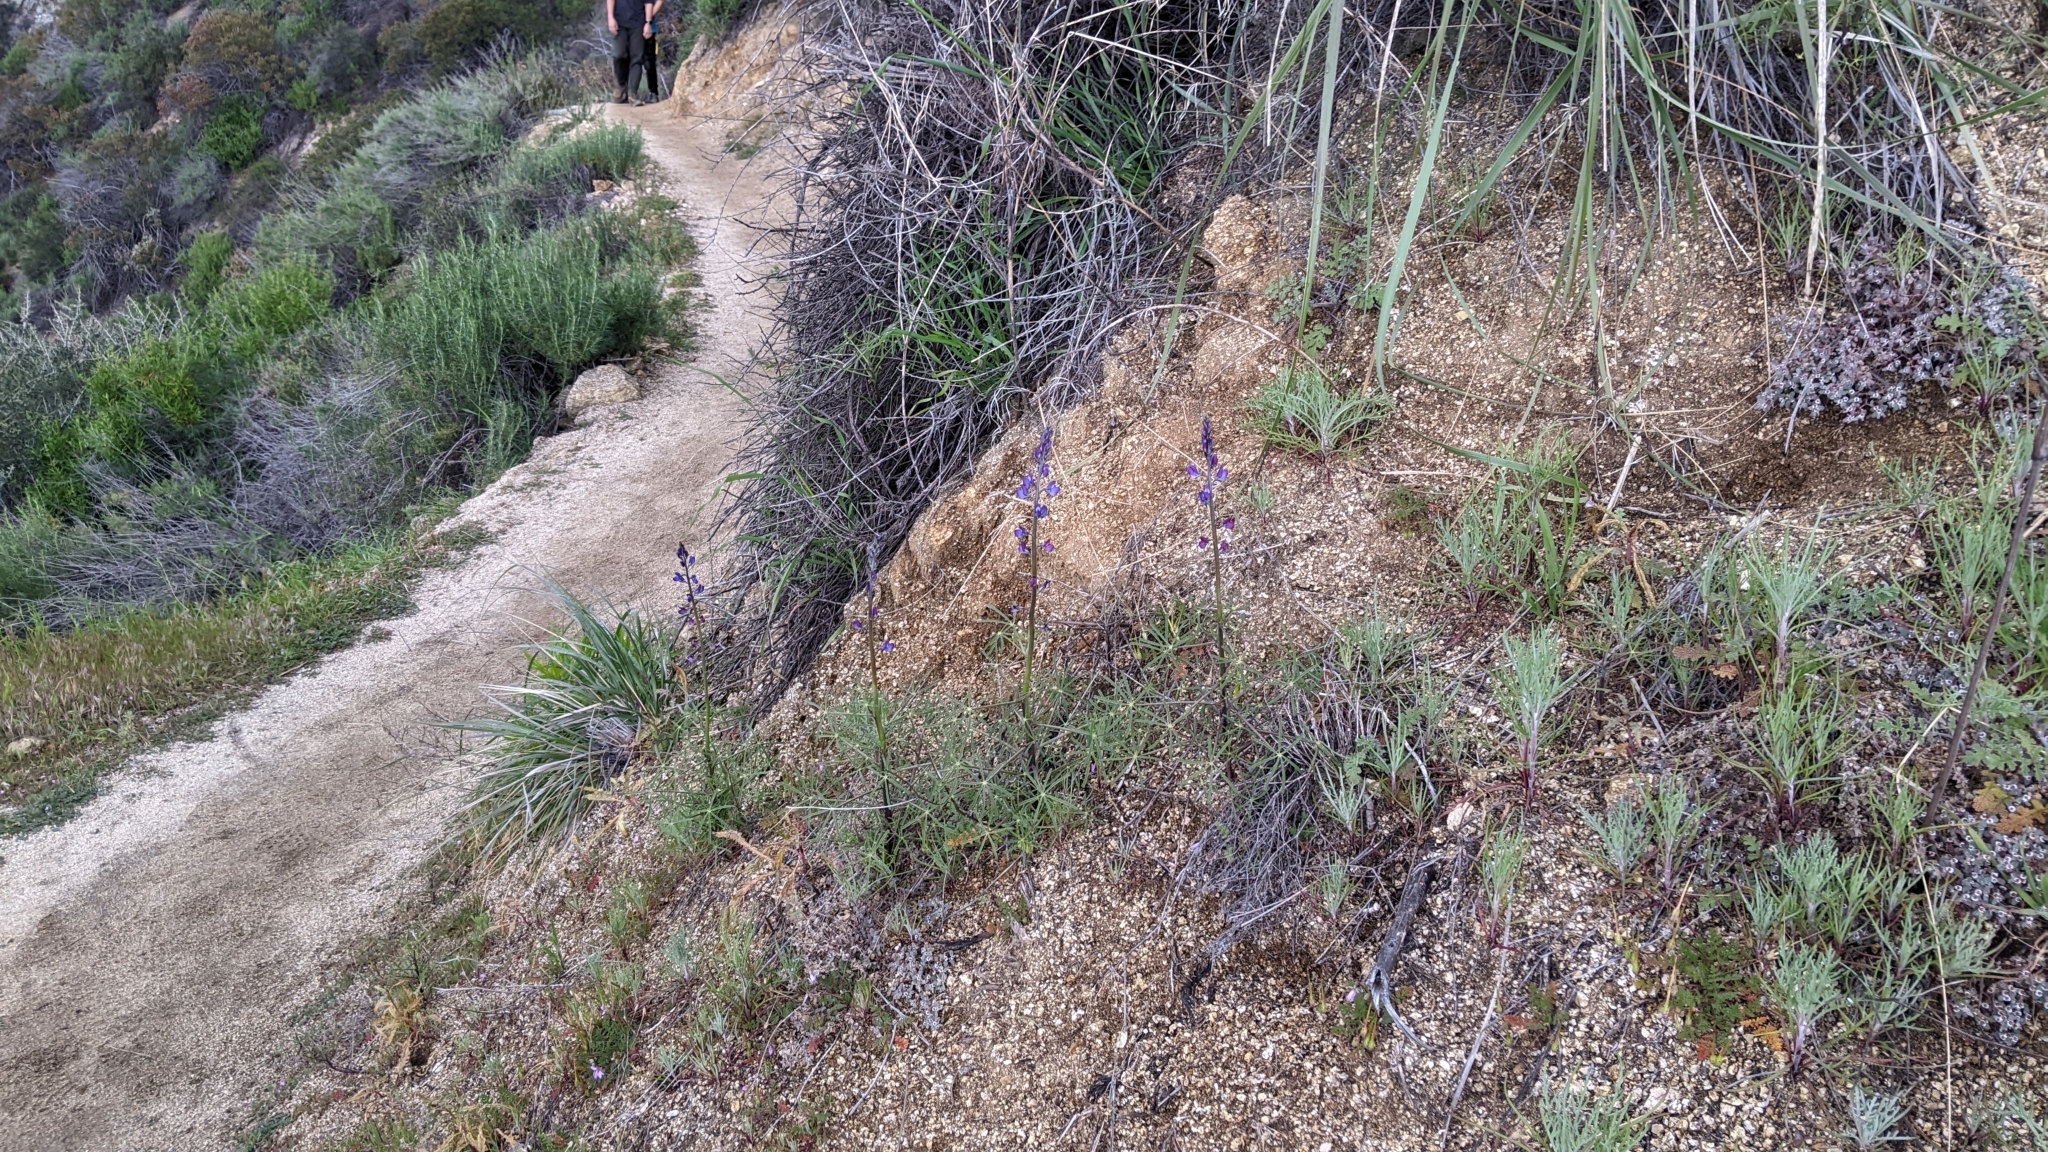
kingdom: Plantae
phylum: Tracheophyta
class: Magnoliopsida
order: Fabales
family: Fabaceae
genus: Lupinus
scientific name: Lupinus truncatus
